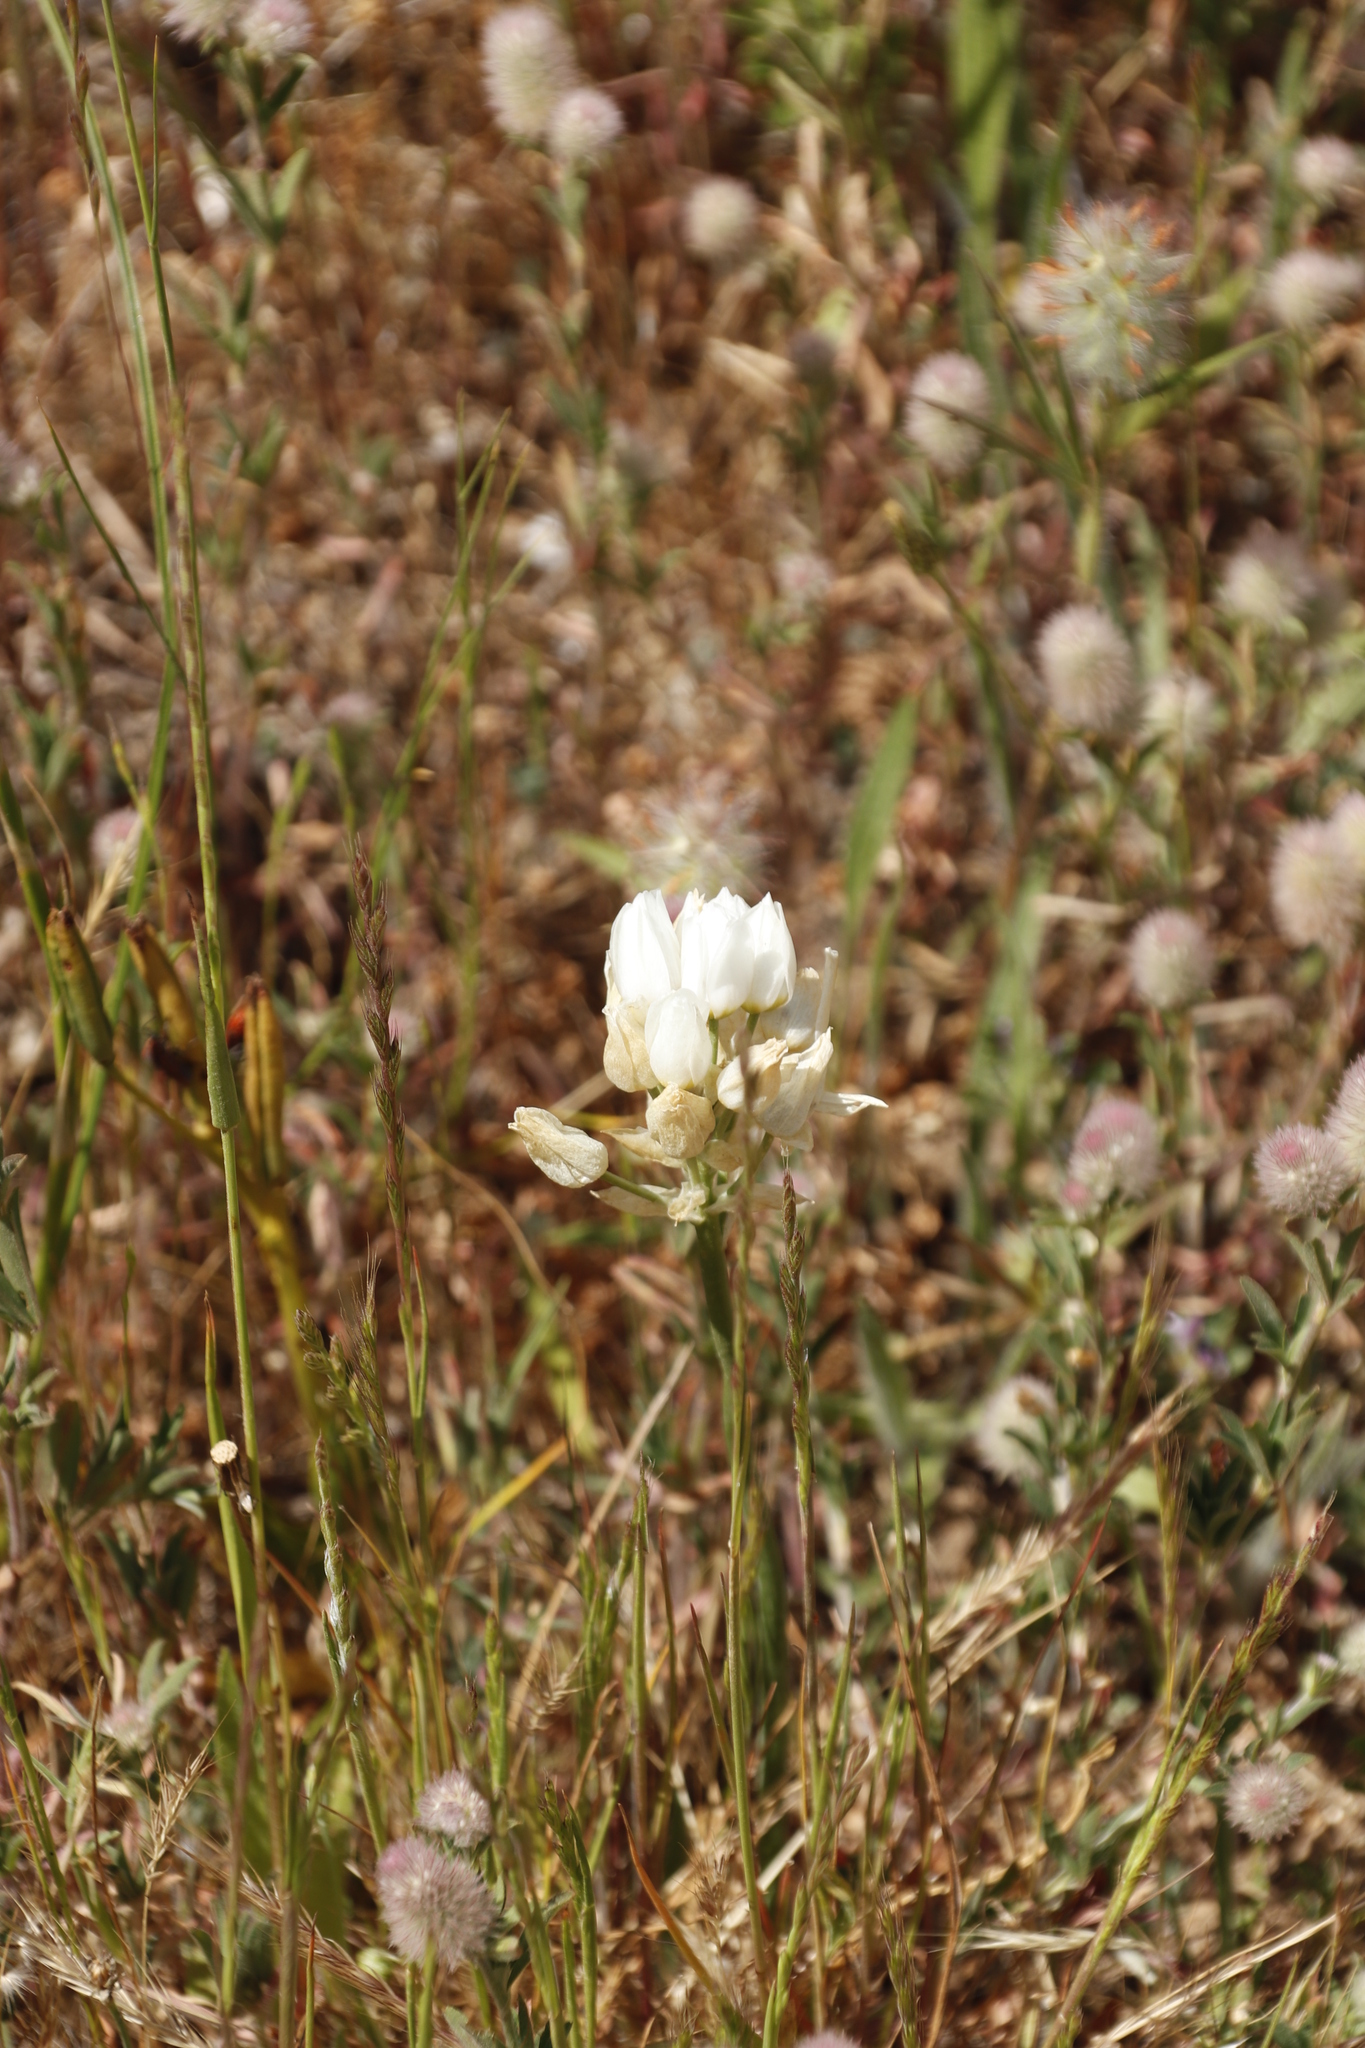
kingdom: Plantae
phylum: Tracheophyta
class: Magnoliopsida
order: Fabales
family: Fabaceae
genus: Trifolium
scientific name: Trifolium arvense
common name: Hare's-foot clover
